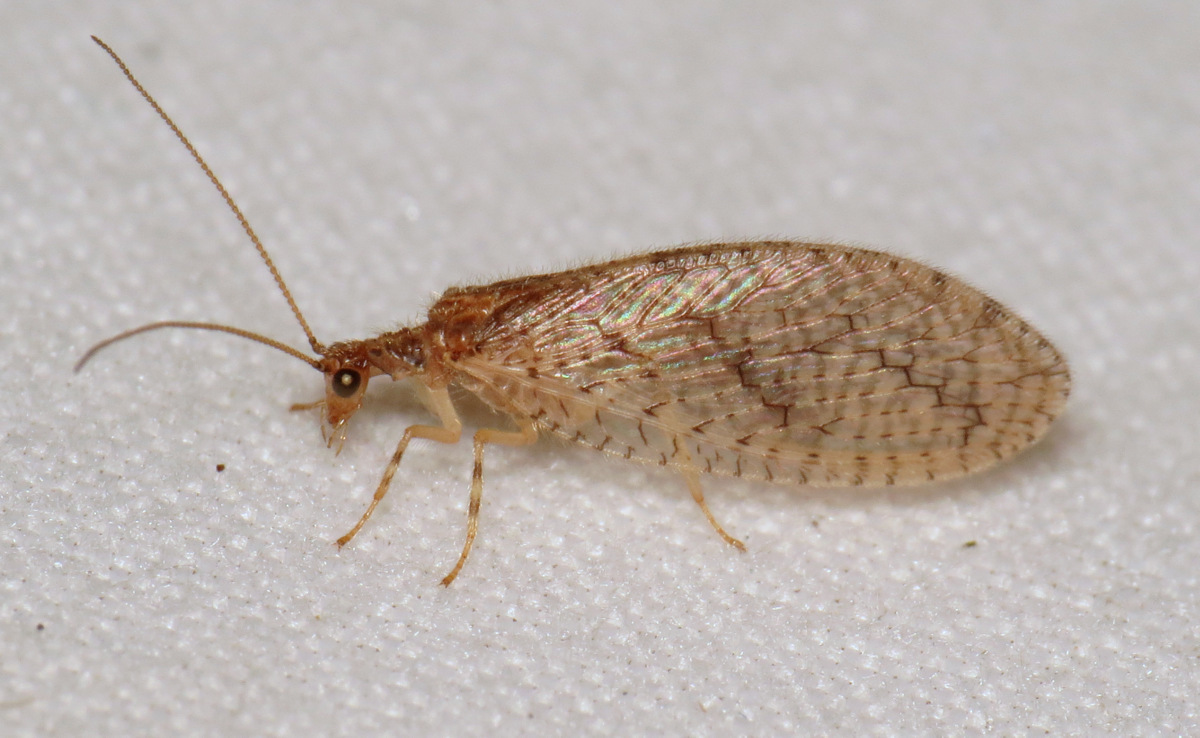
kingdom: Animalia
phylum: Arthropoda
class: Insecta
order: Neuroptera
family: Hemerobiidae
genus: Micromus
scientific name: Micromus posticus
